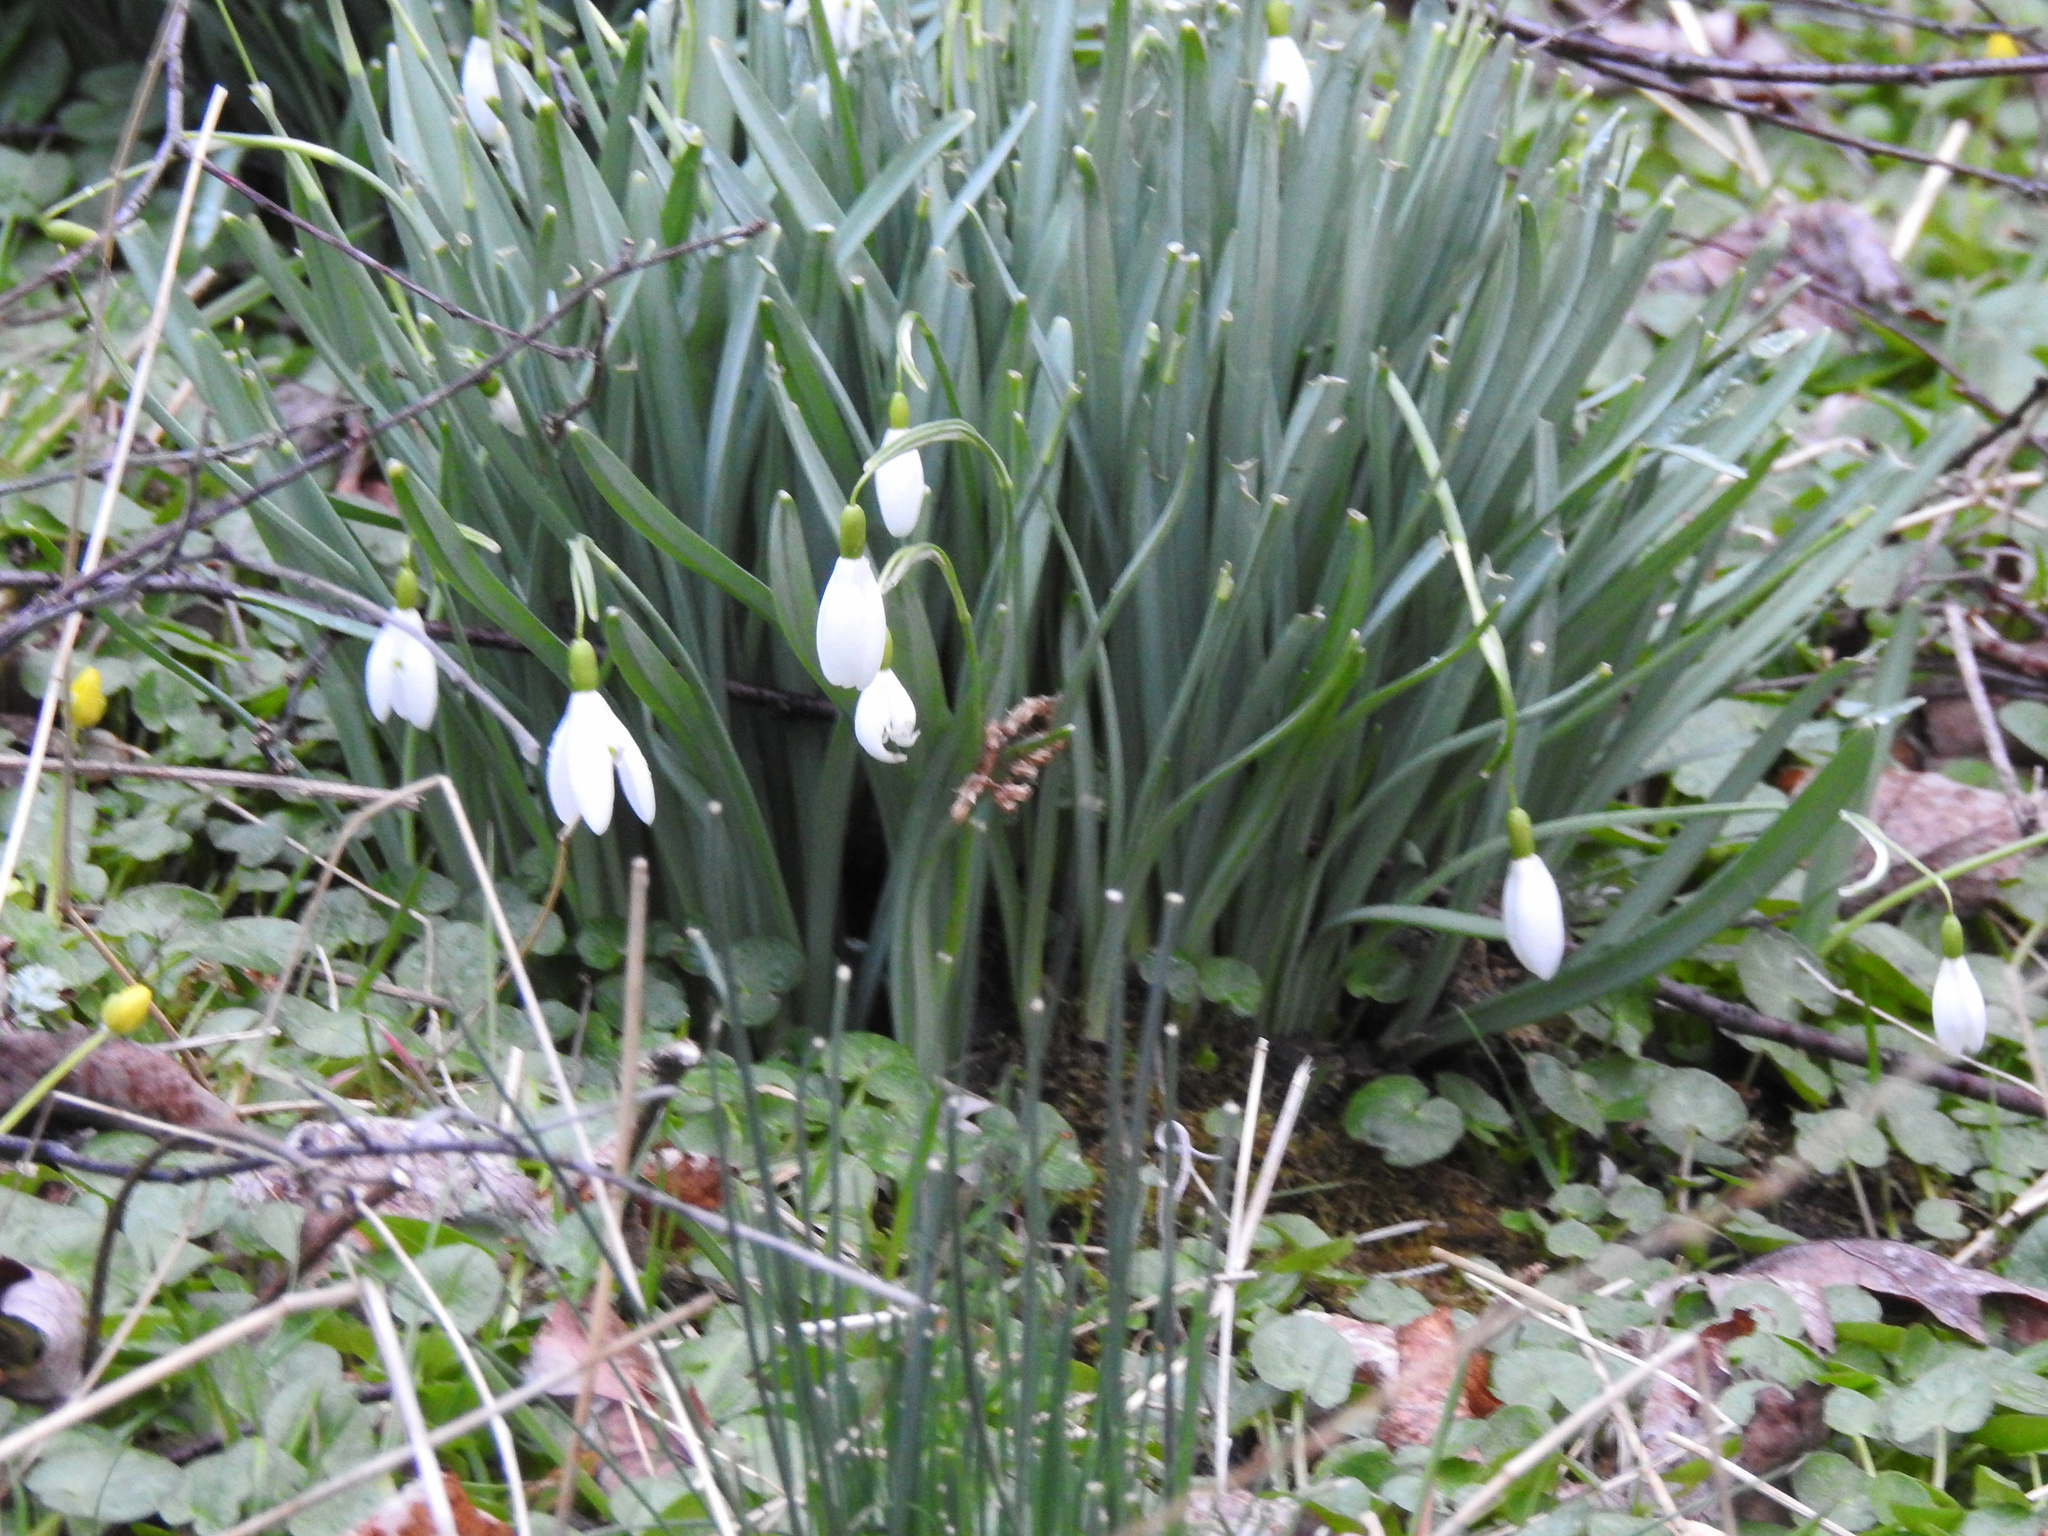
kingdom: Plantae
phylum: Tracheophyta
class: Liliopsida
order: Asparagales
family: Amaryllidaceae
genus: Galanthus
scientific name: Galanthus nivalis
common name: Snowdrop
